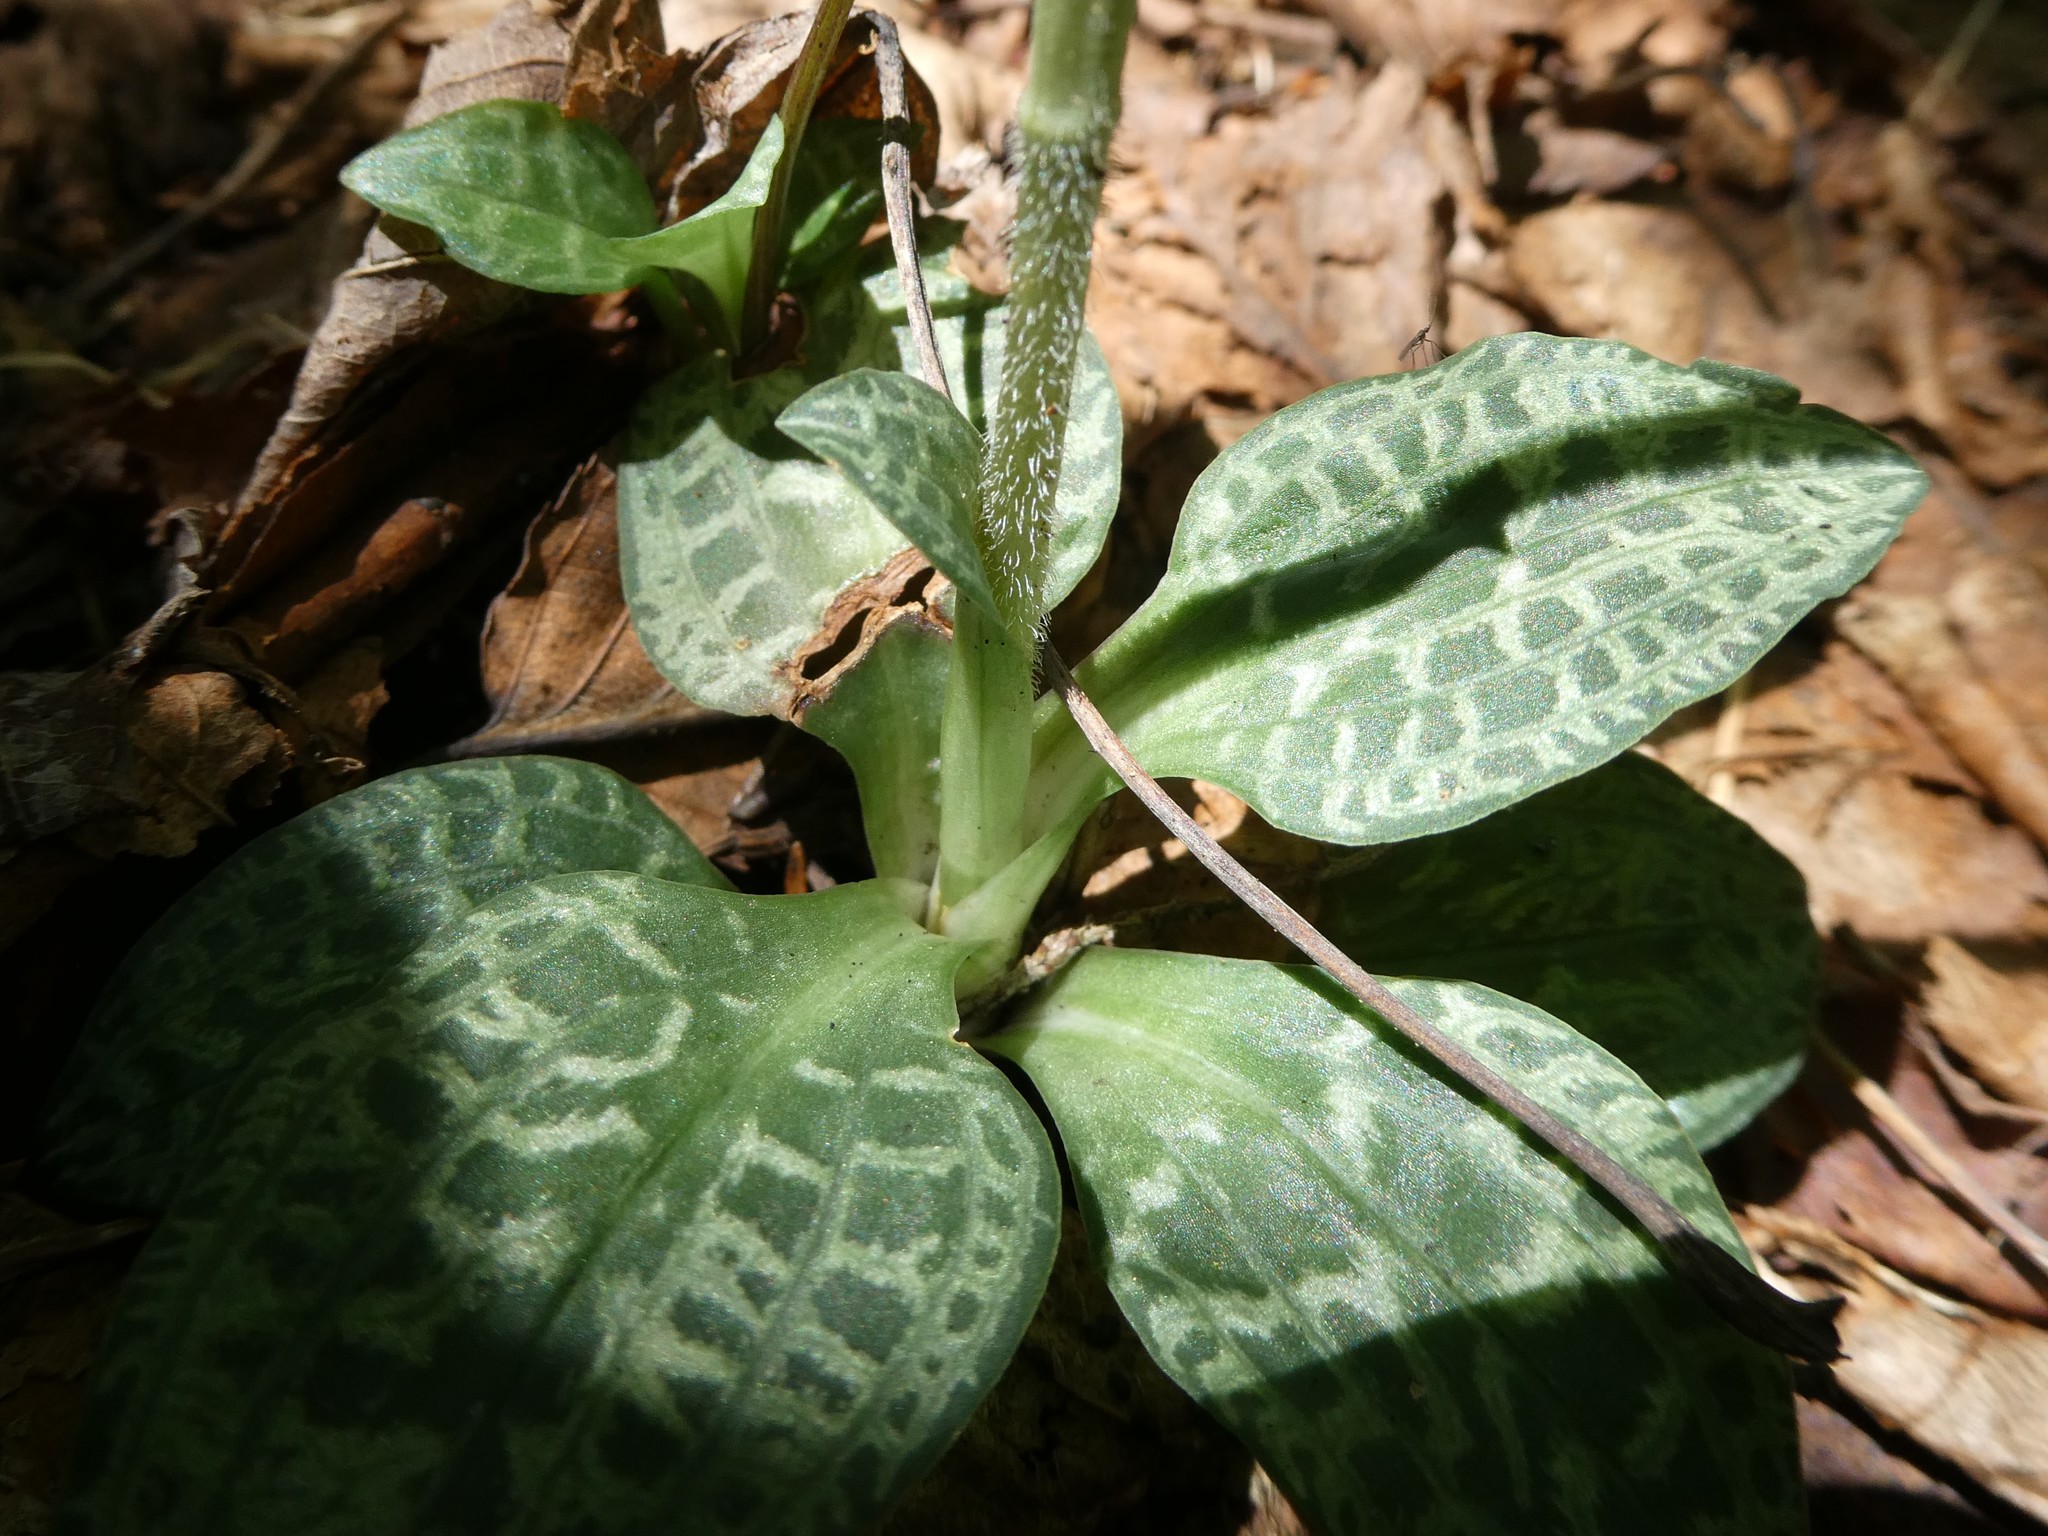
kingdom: Plantae
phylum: Tracheophyta
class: Liliopsida
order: Asparagales
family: Orchidaceae
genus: Goodyera
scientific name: Goodyera tesselata
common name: Checkered rattlesnake-plantain
